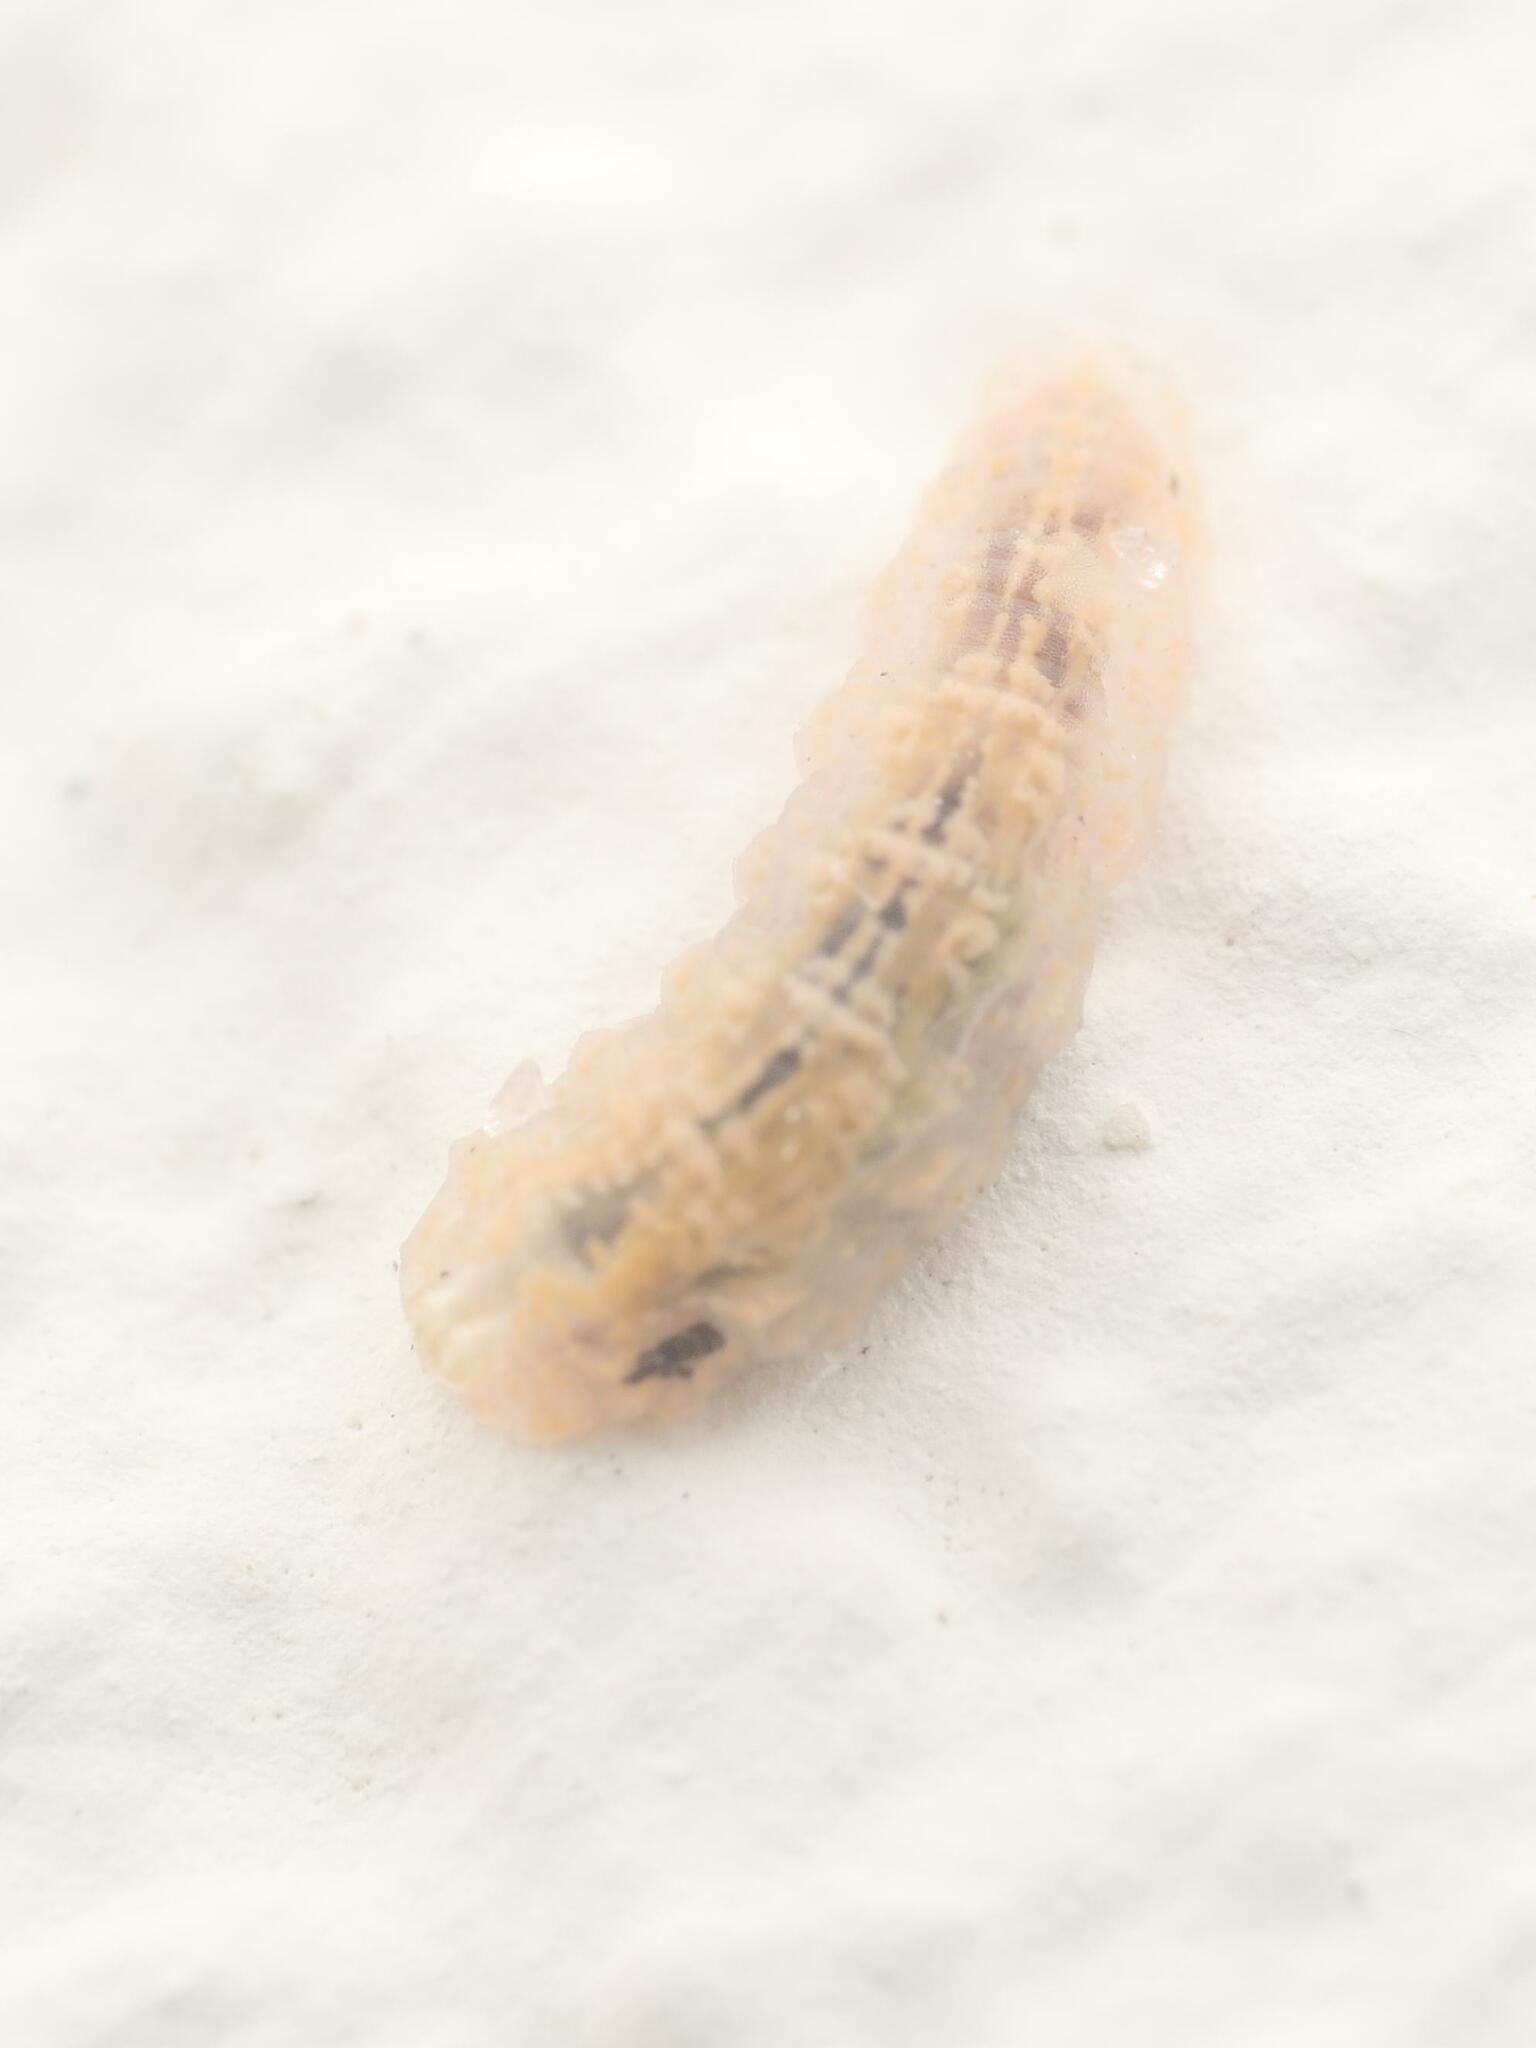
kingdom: Animalia
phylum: Arthropoda
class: Insecta
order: Diptera
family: Syrphidae
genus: Syrphus
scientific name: Syrphus
